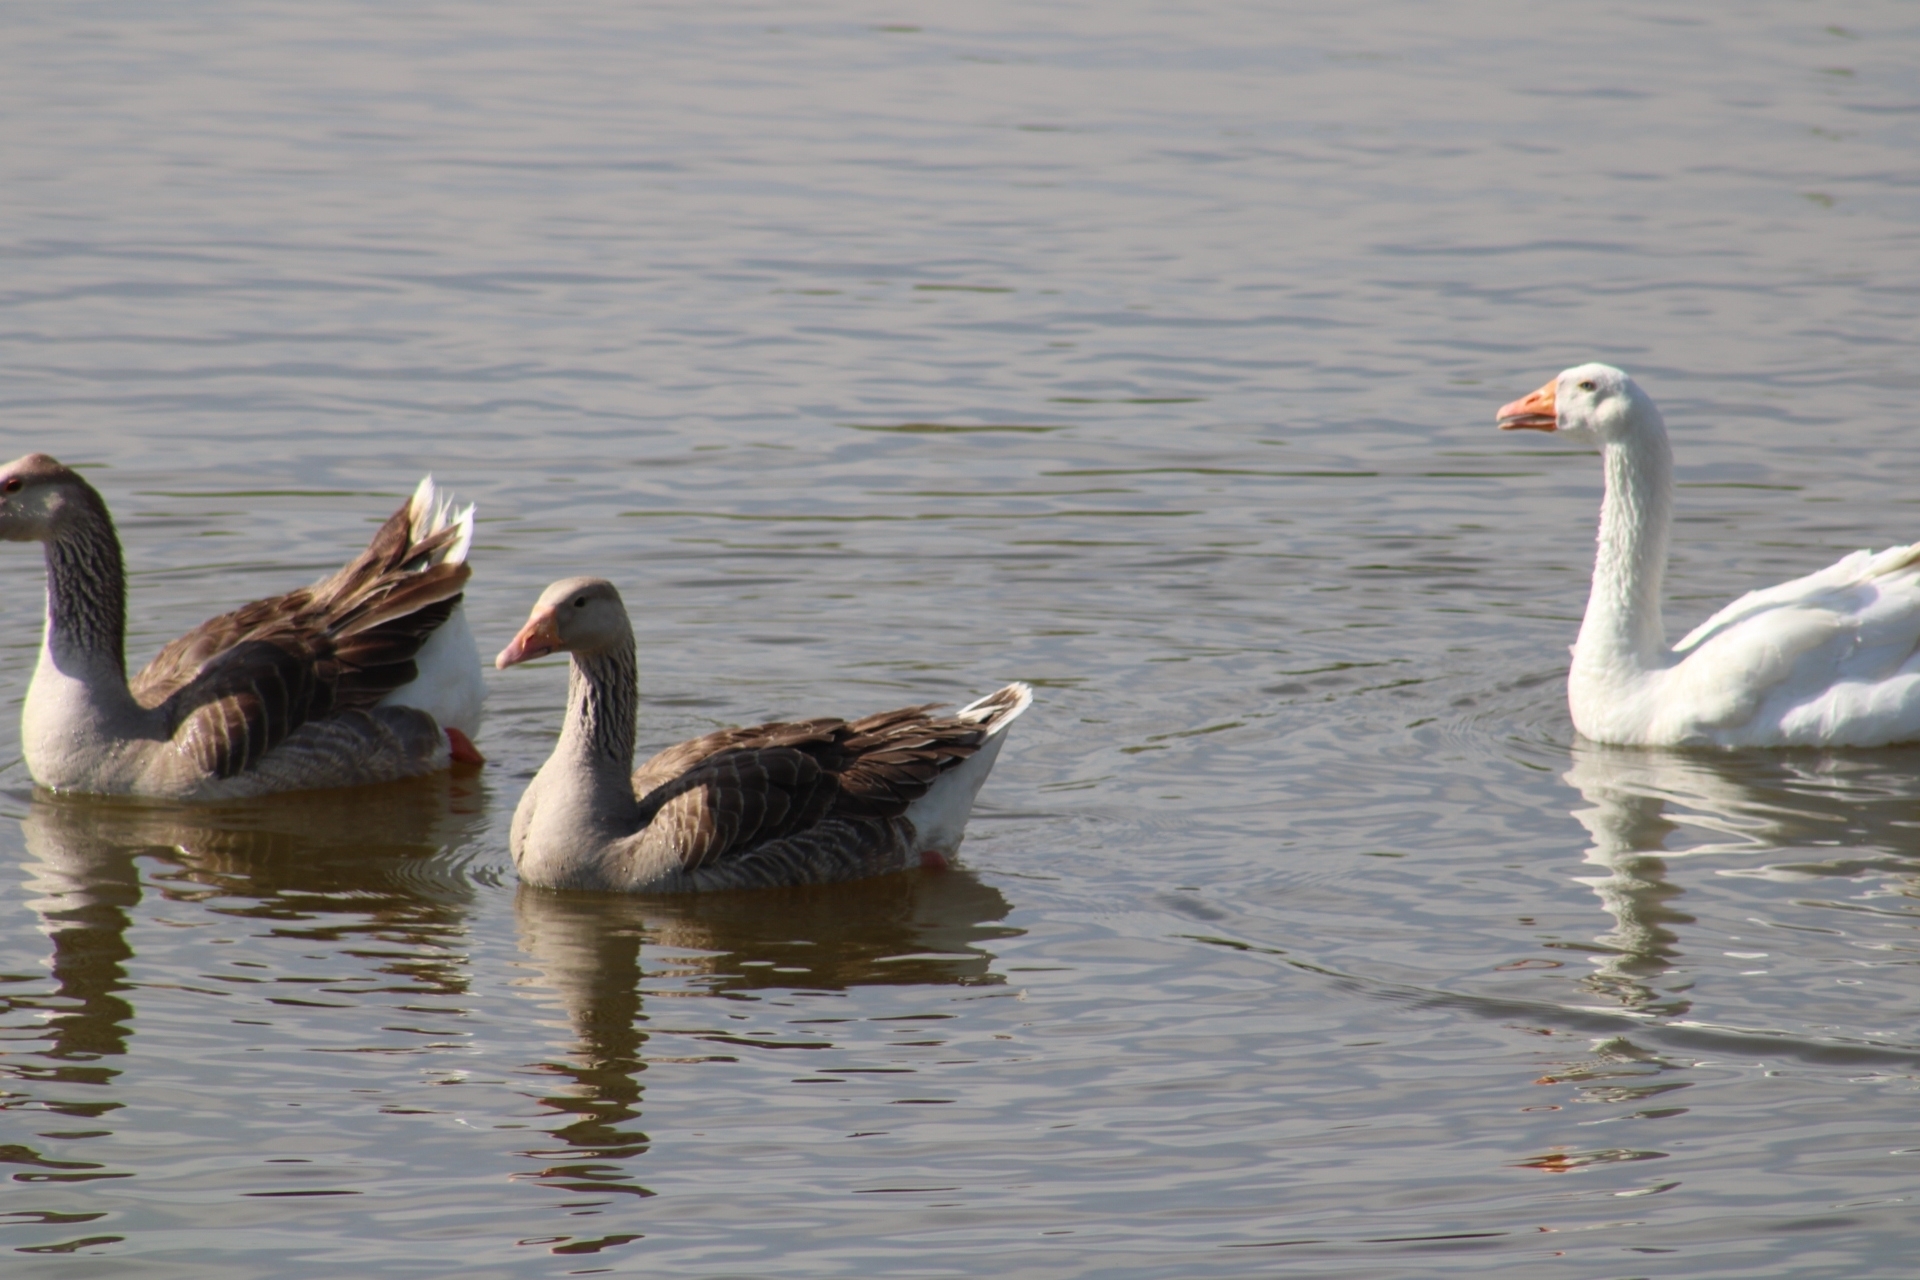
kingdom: Animalia
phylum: Chordata
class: Aves
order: Anseriformes
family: Anatidae
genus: Anser
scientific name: Anser anser
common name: Greylag goose
